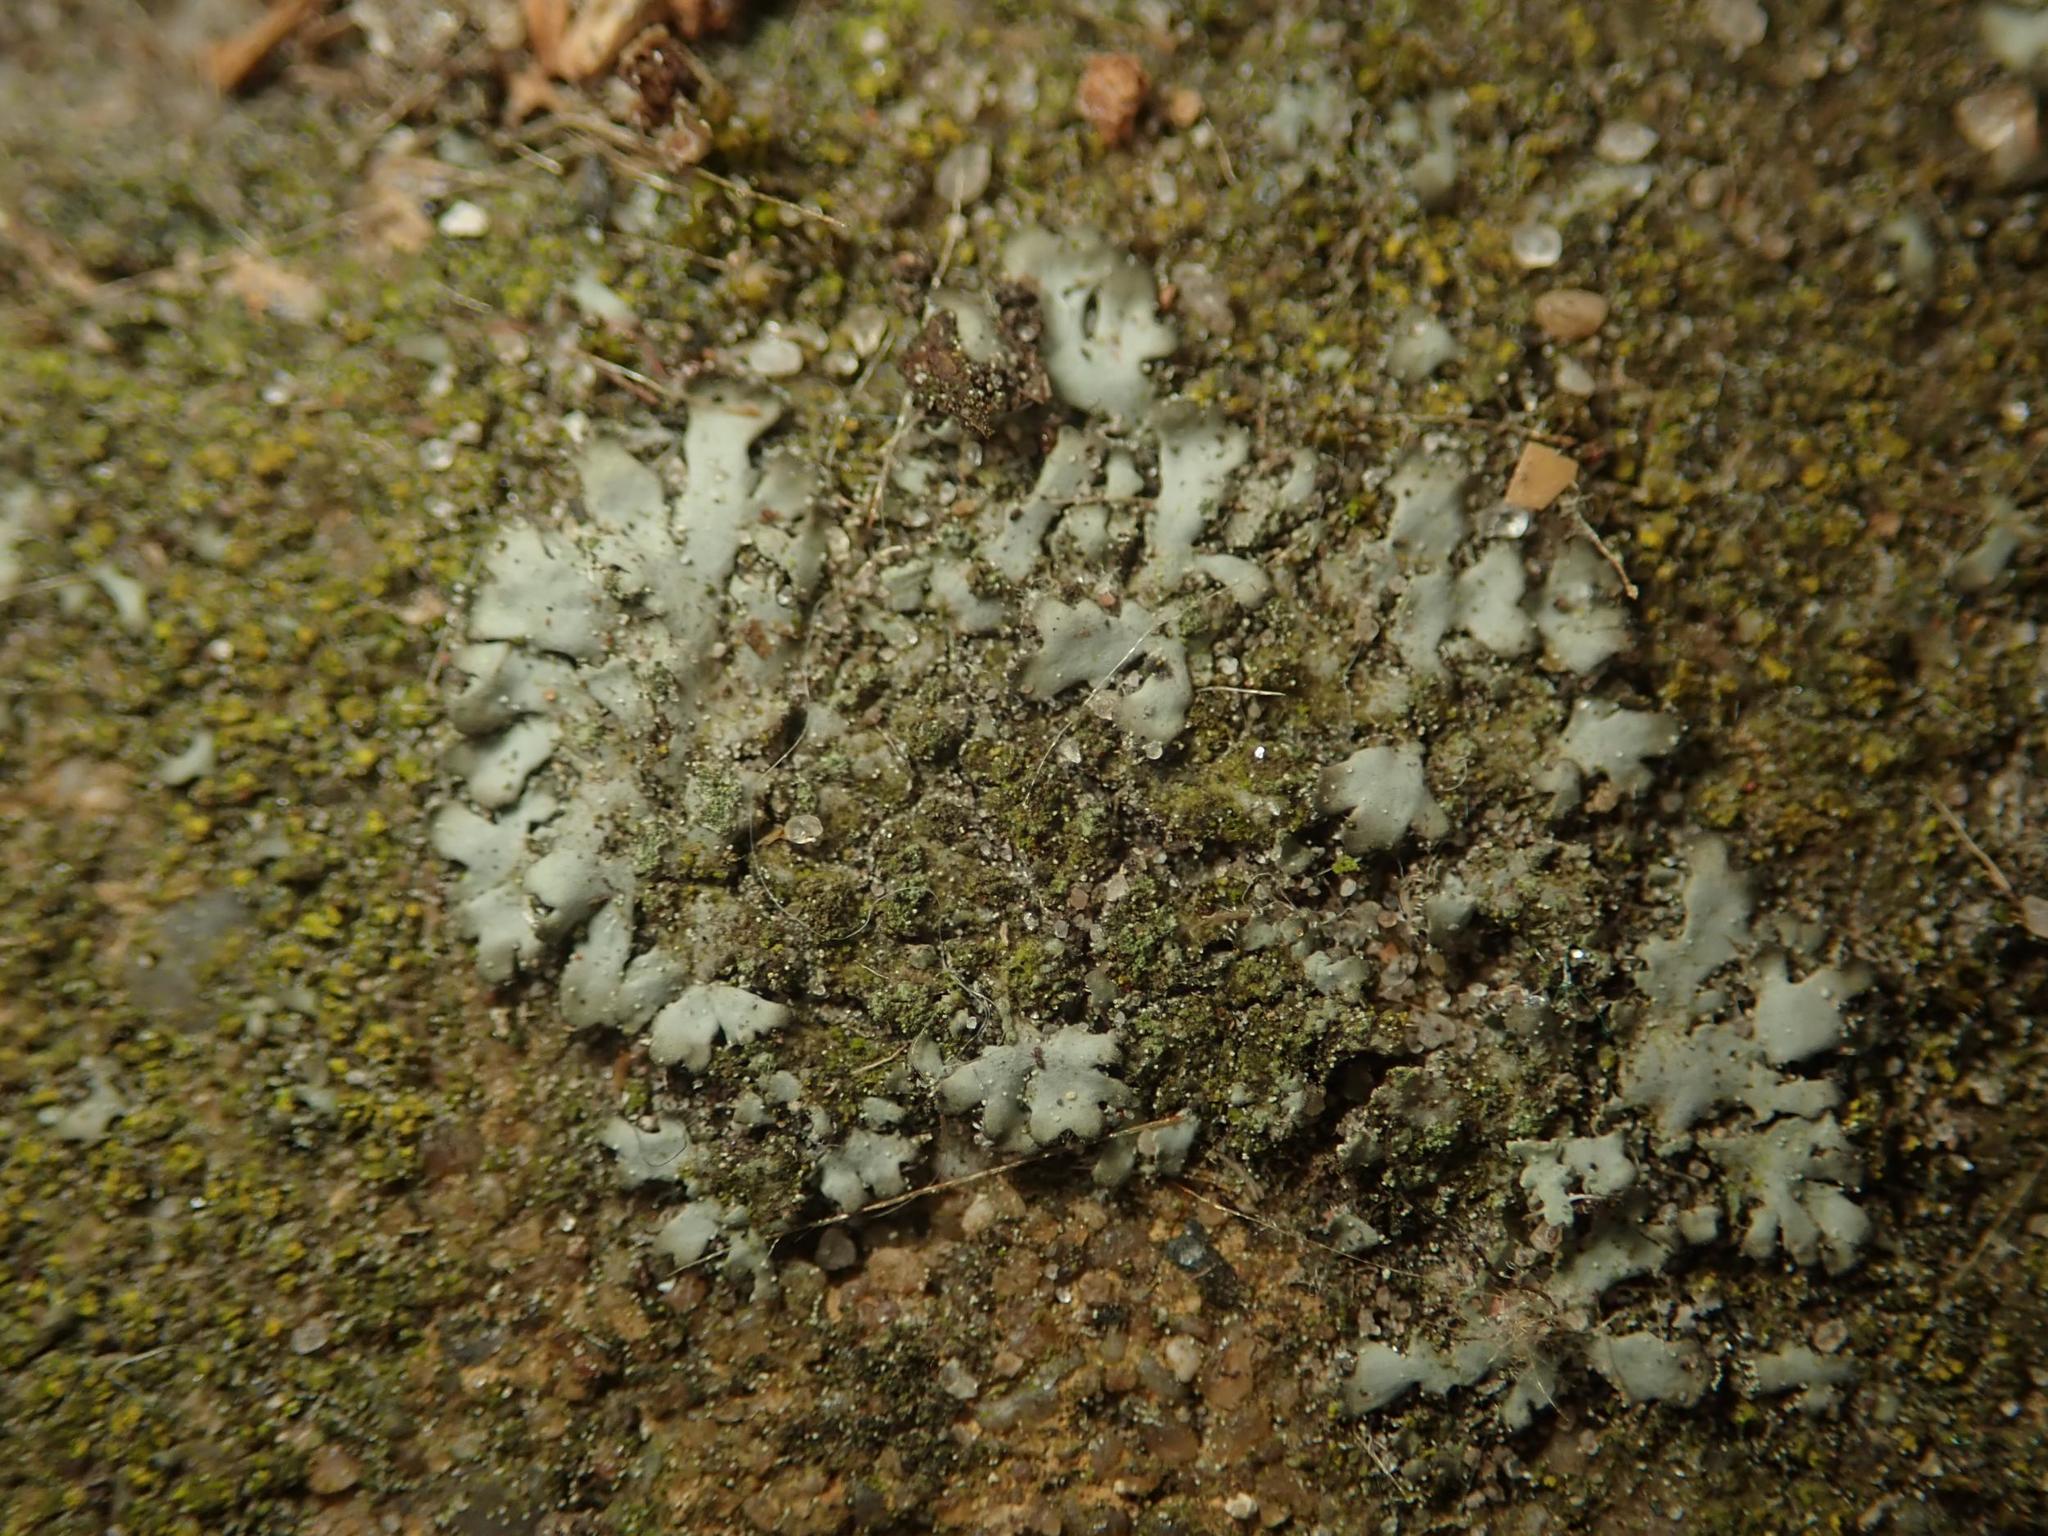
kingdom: Fungi
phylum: Ascomycota
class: Lecanoromycetes
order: Caliciales
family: Physciaceae
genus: Phaeophyscia
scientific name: Phaeophyscia orbicularis
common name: Mealy shadow lichen
